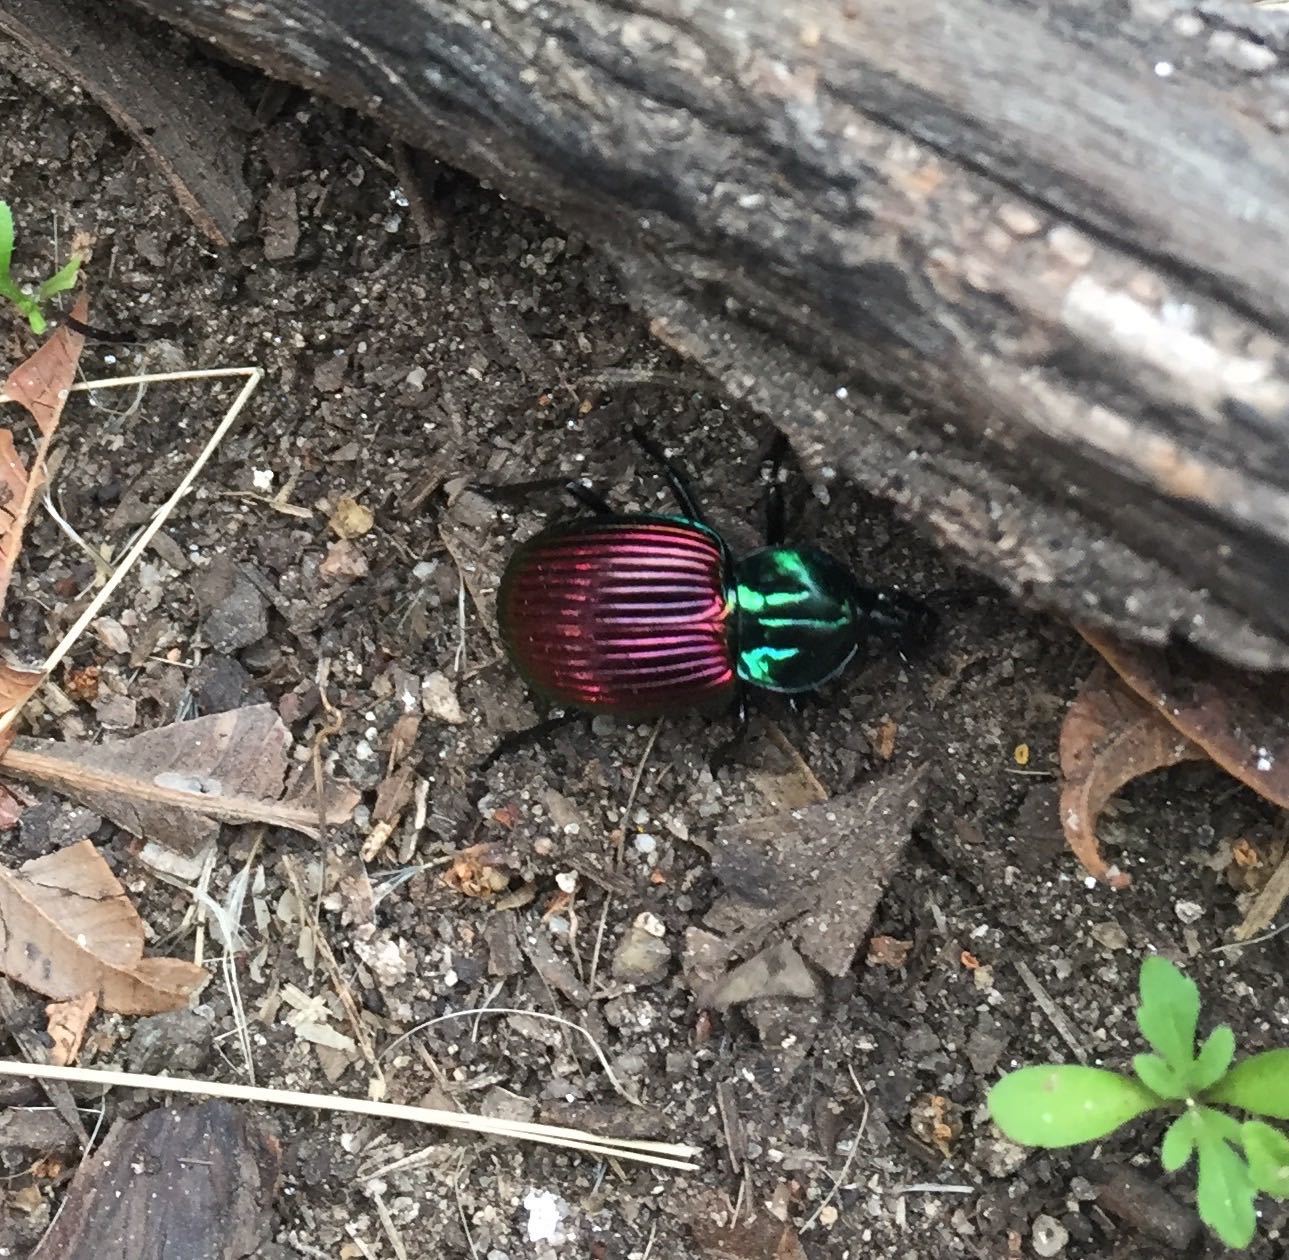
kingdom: Animalia
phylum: Arthropoda
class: Insecta
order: Coleoptera
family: Carabidae
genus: Brachygnathus
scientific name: Brachygnathus festivus
